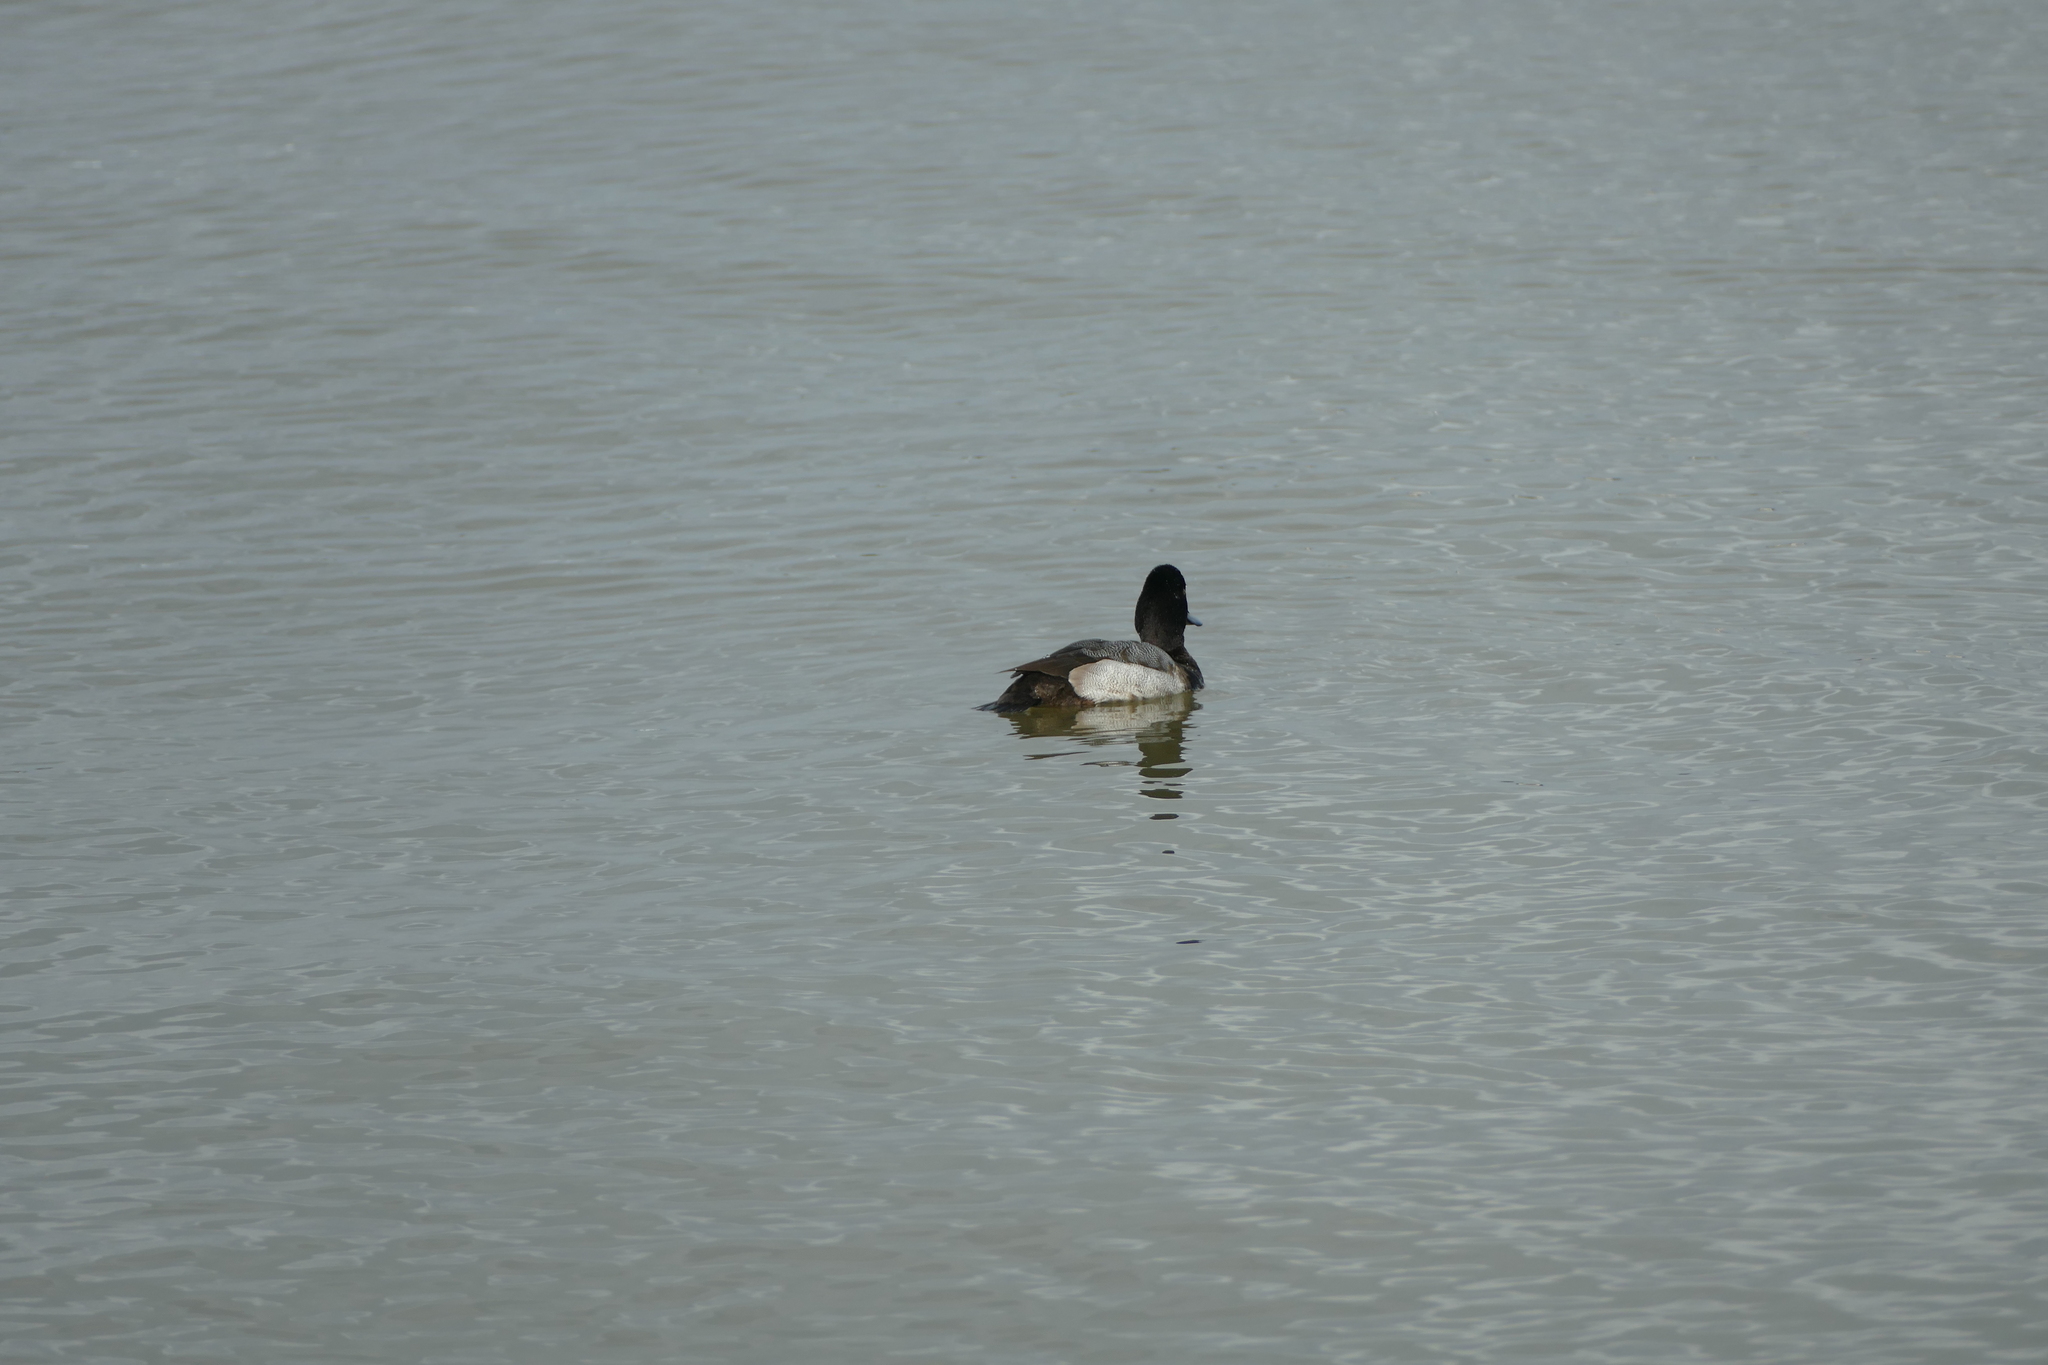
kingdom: Animalia
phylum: Chordata
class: Aves
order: Anseriformes
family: Anatidae
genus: Aythya
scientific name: Aythya affinis
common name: Lesser scaup
